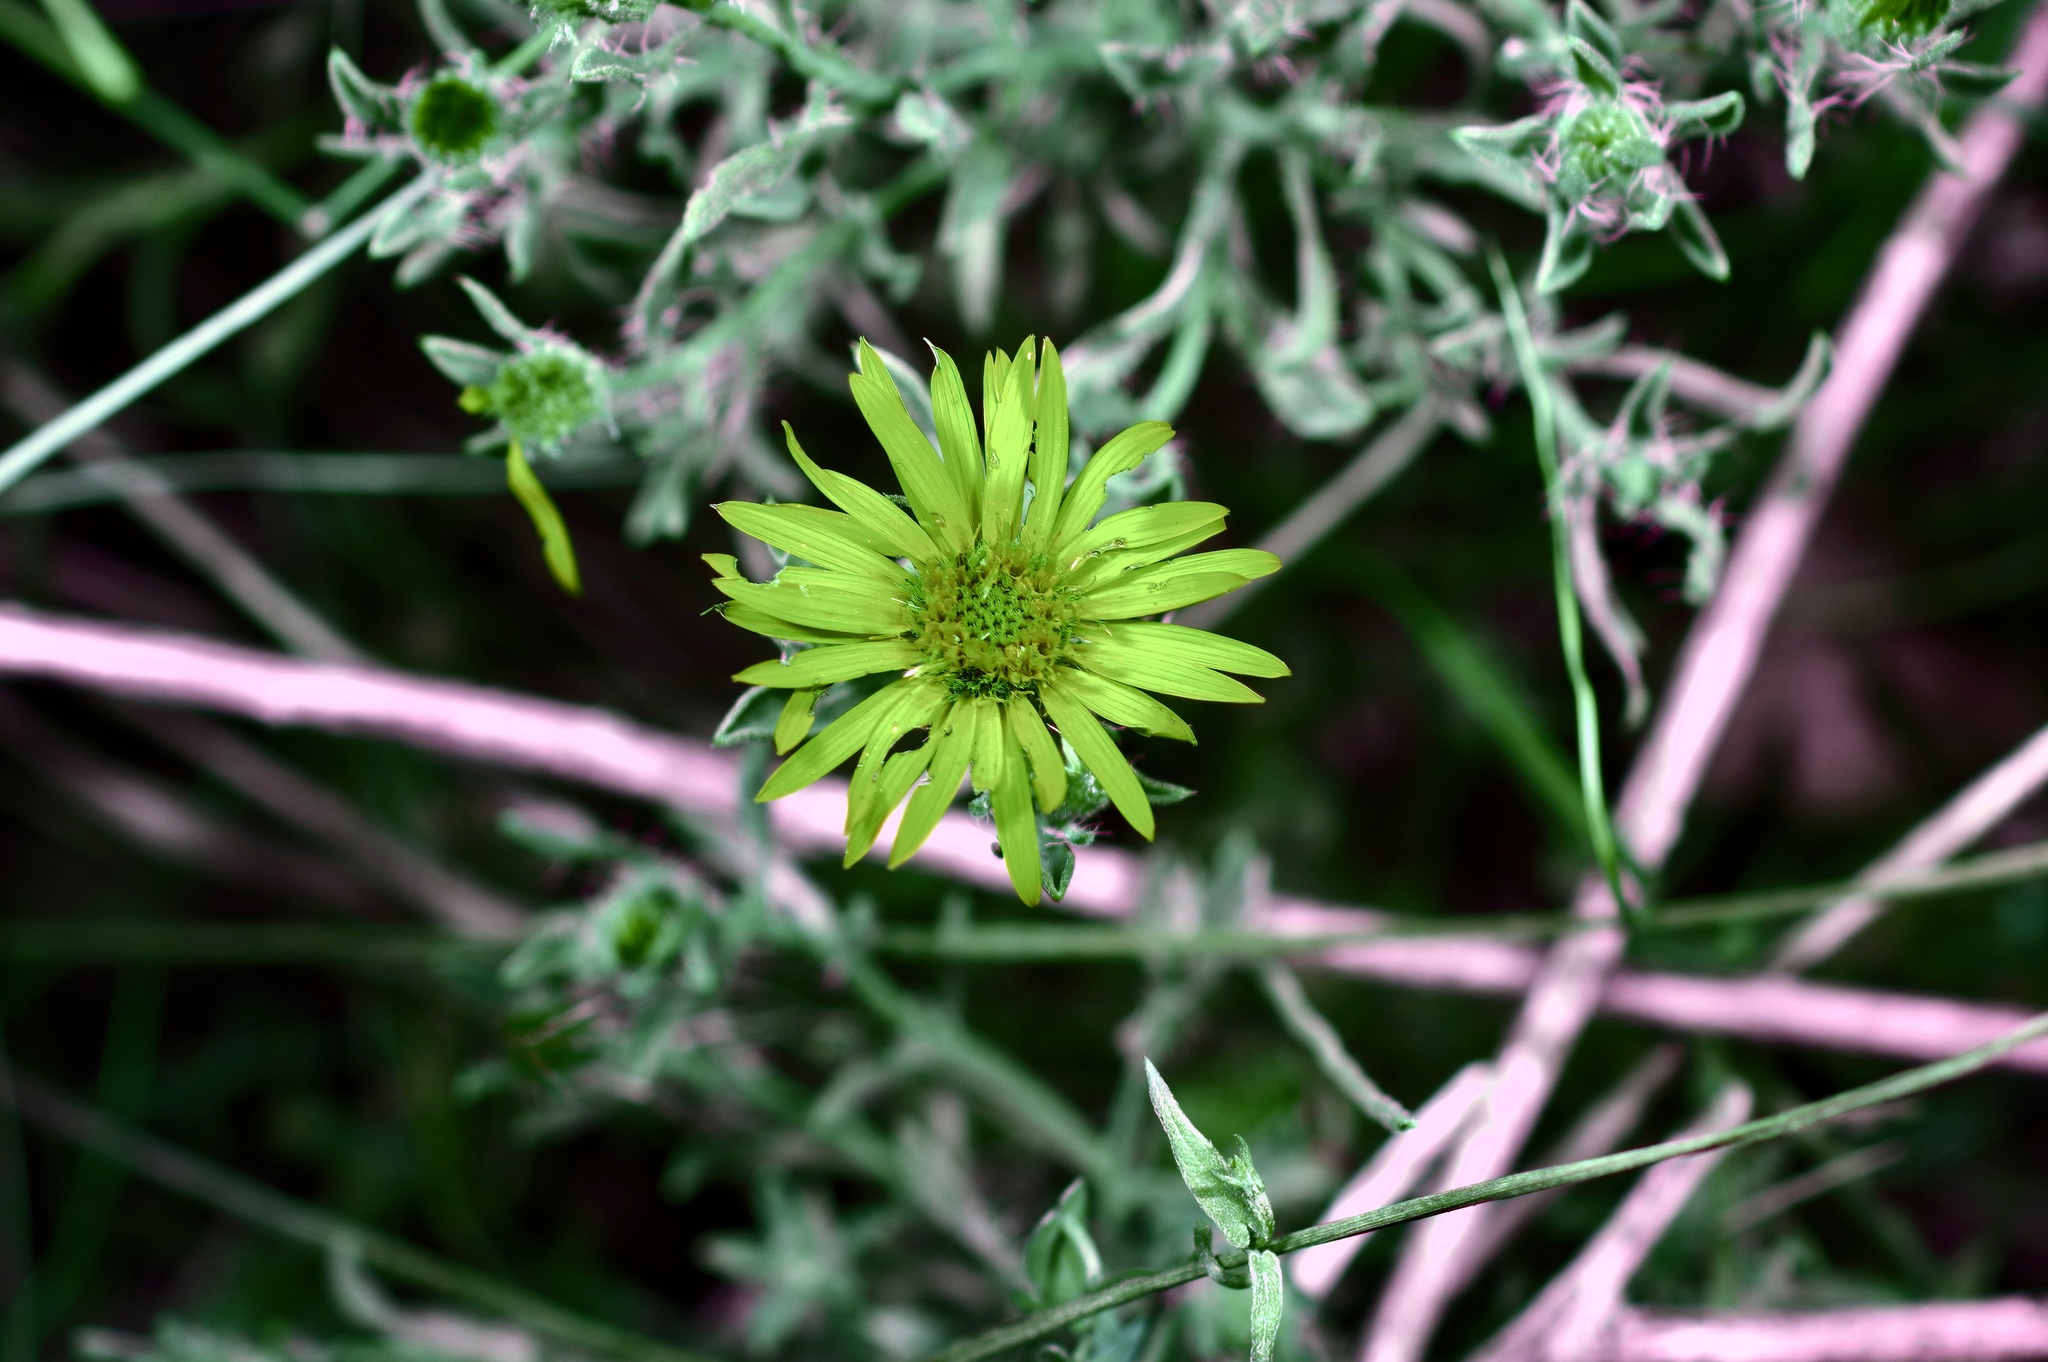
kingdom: Plantae
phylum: Tracheophyta
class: Magnoliopsida
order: Asterales
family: Asteraceae
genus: Heterotheca
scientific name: Heterotheca angustifolia
